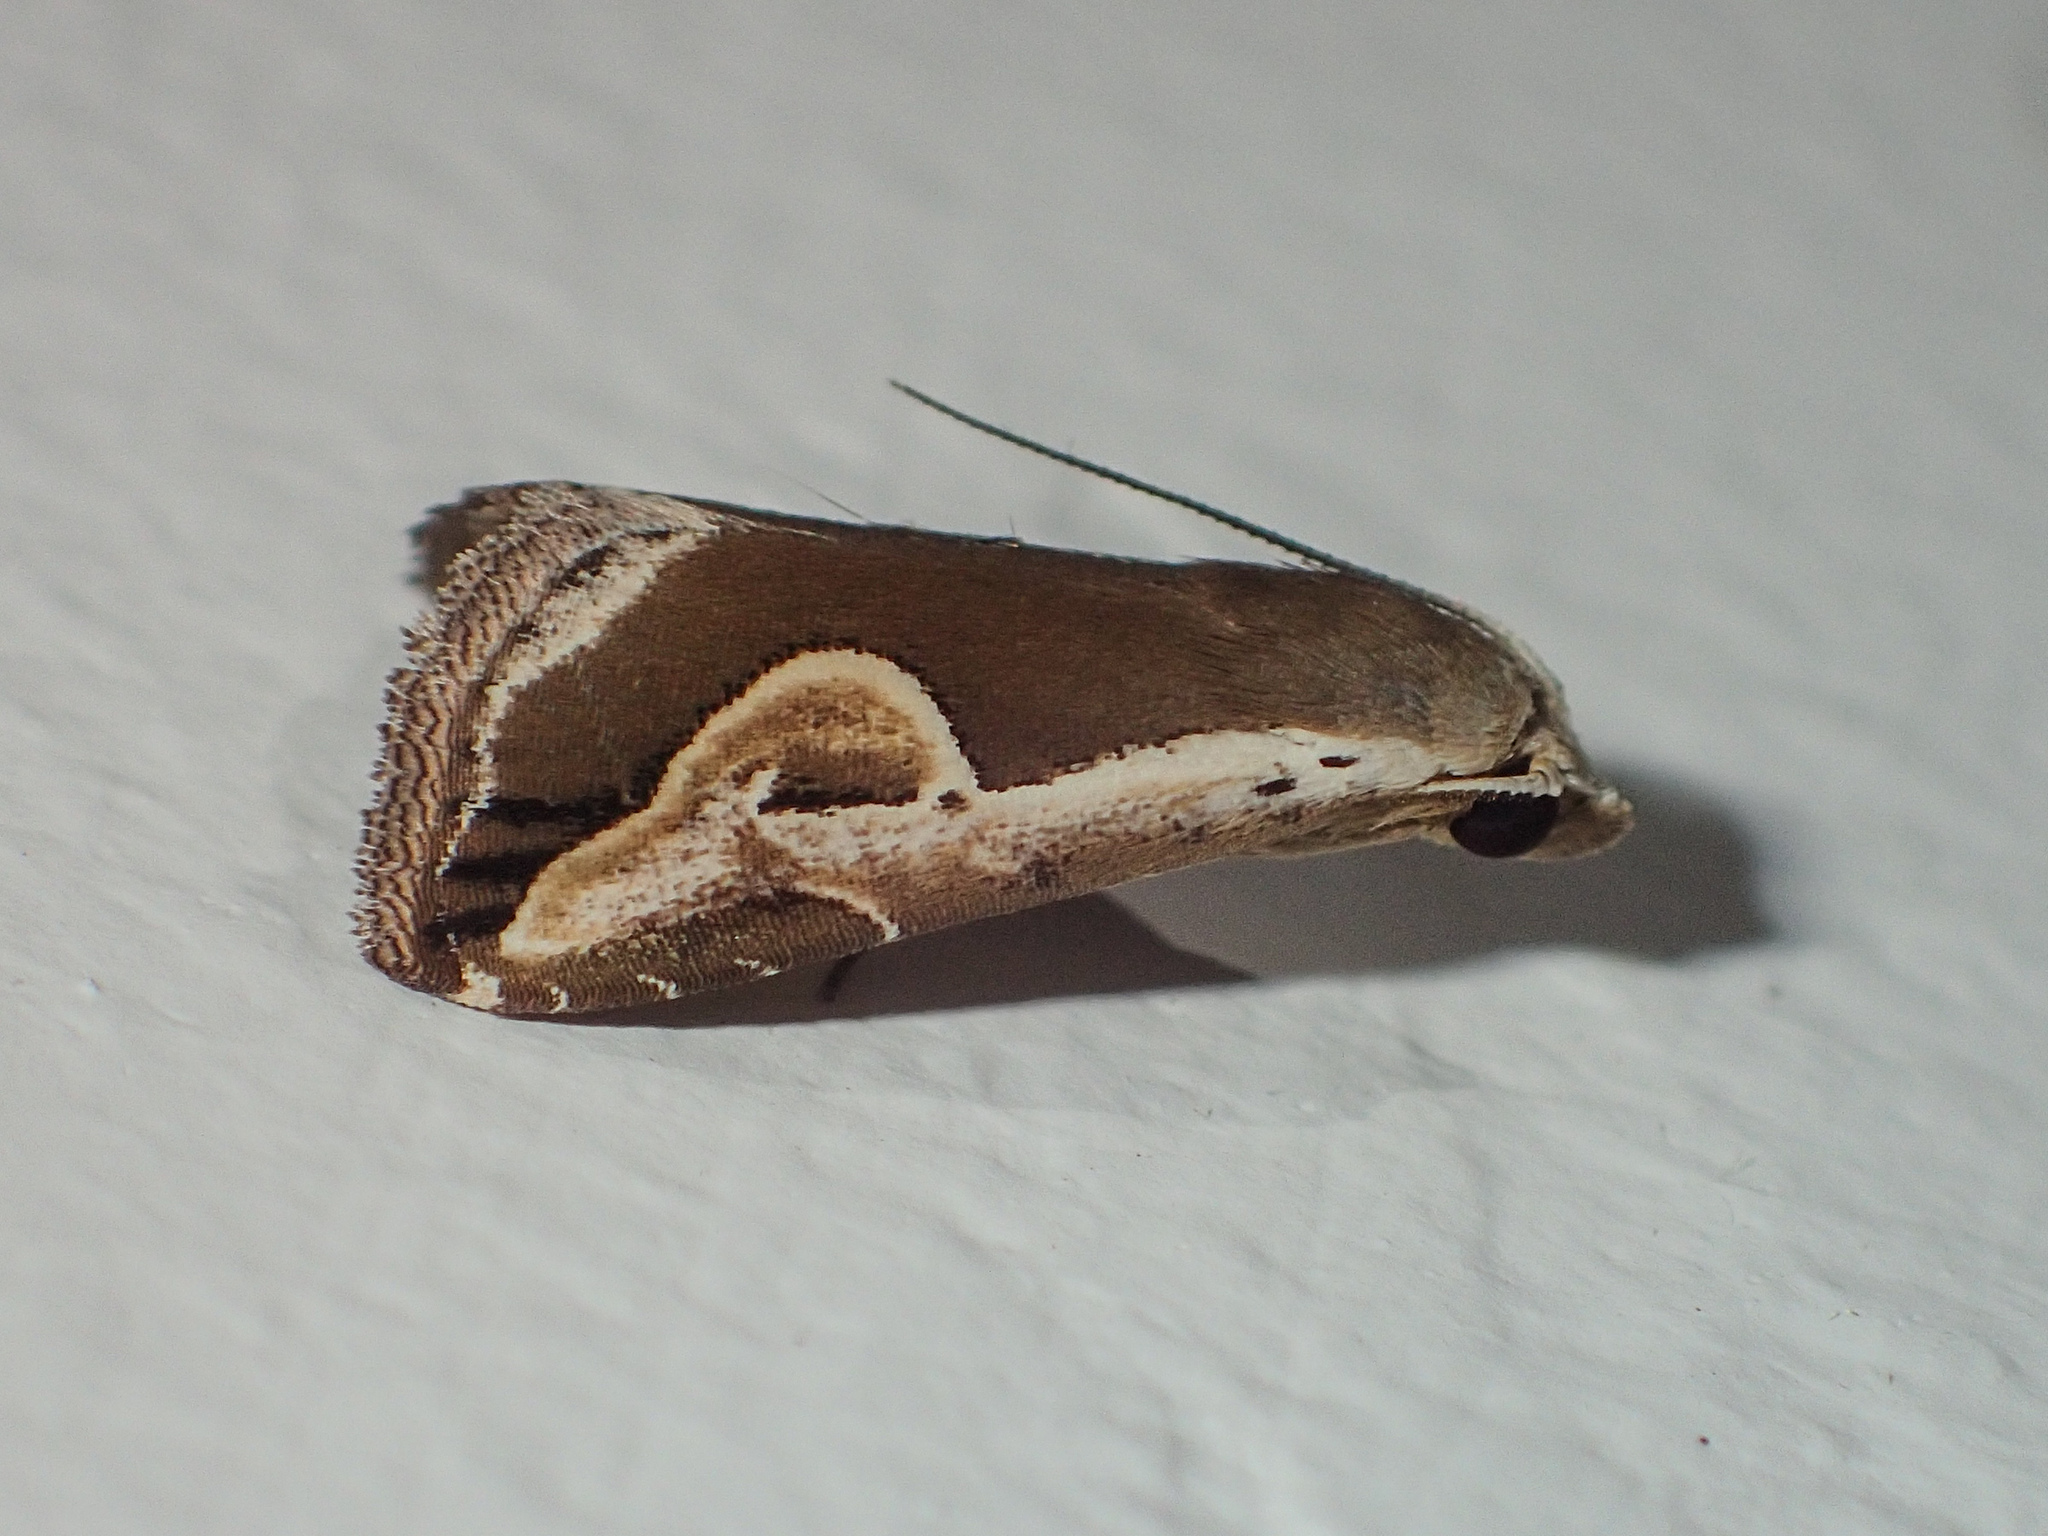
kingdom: Animalia
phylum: Arthropoda
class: Insecta
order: Lepidoptera
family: Erebidae
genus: Rivula
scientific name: Rivula curvifera
